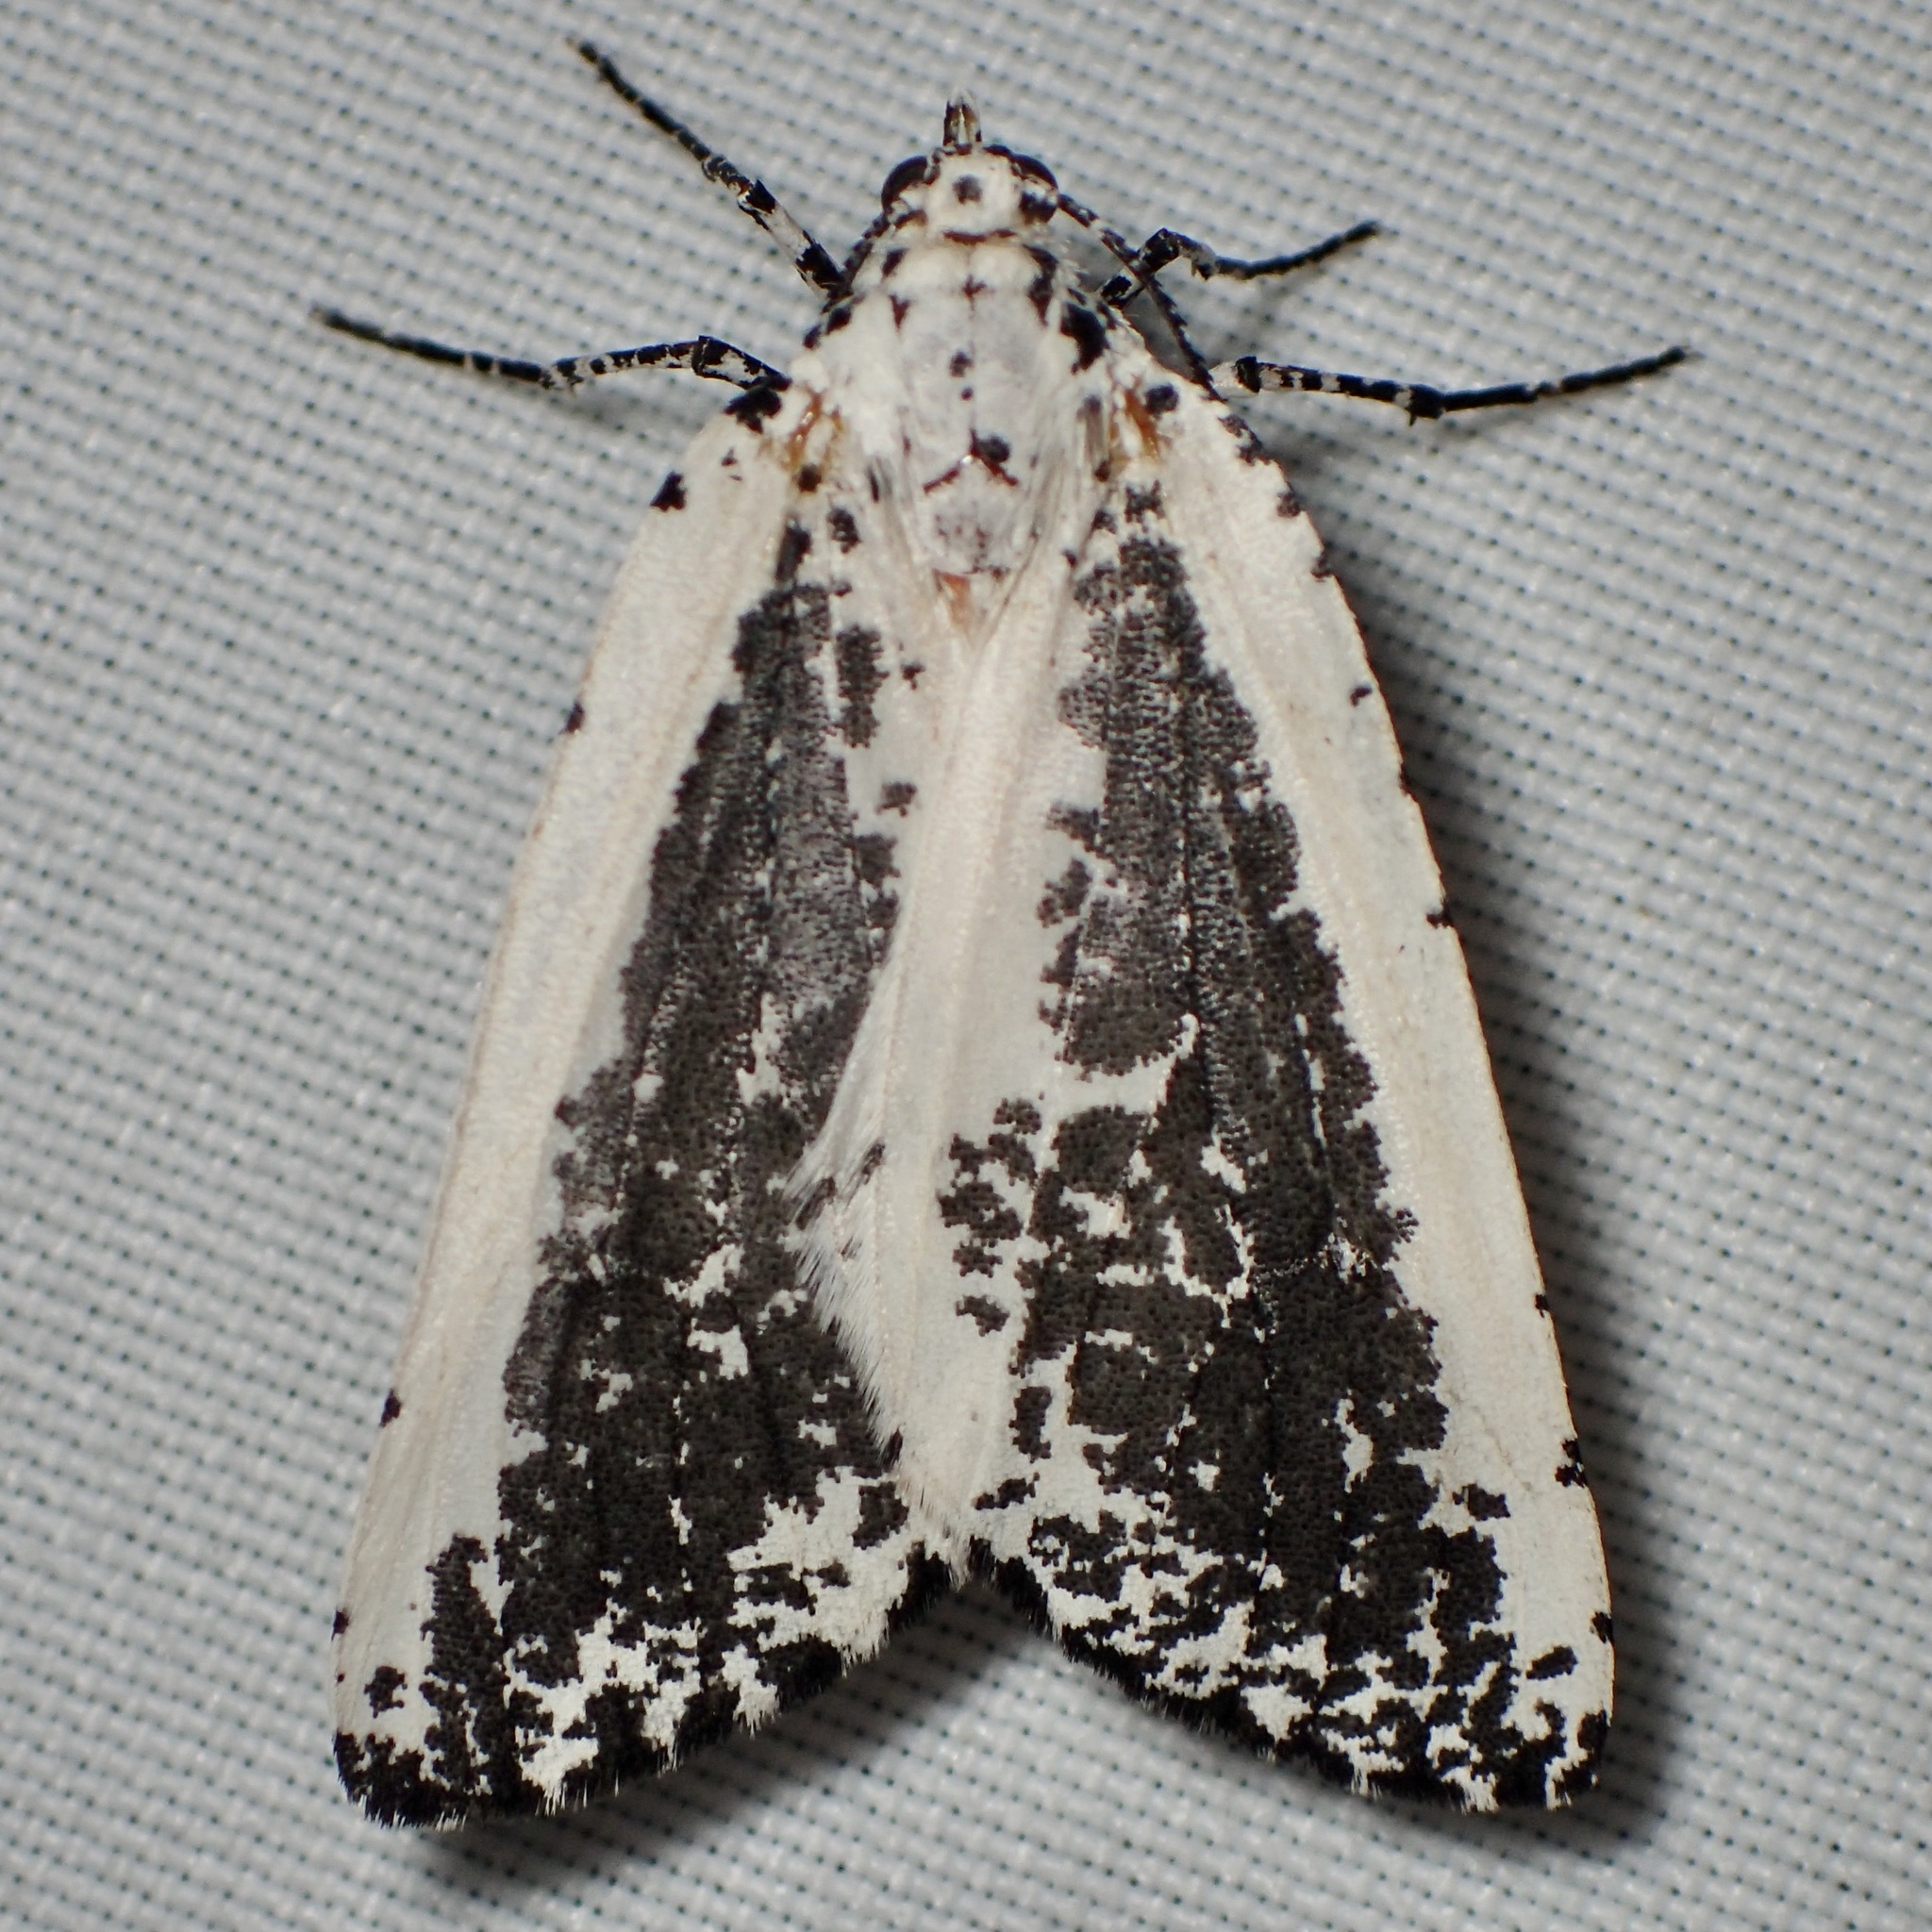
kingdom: Animalia
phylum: Arthropoda
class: Insecta
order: Lepidoptera
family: Geometridae
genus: Eucaterva
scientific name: Eucaterva variaria
